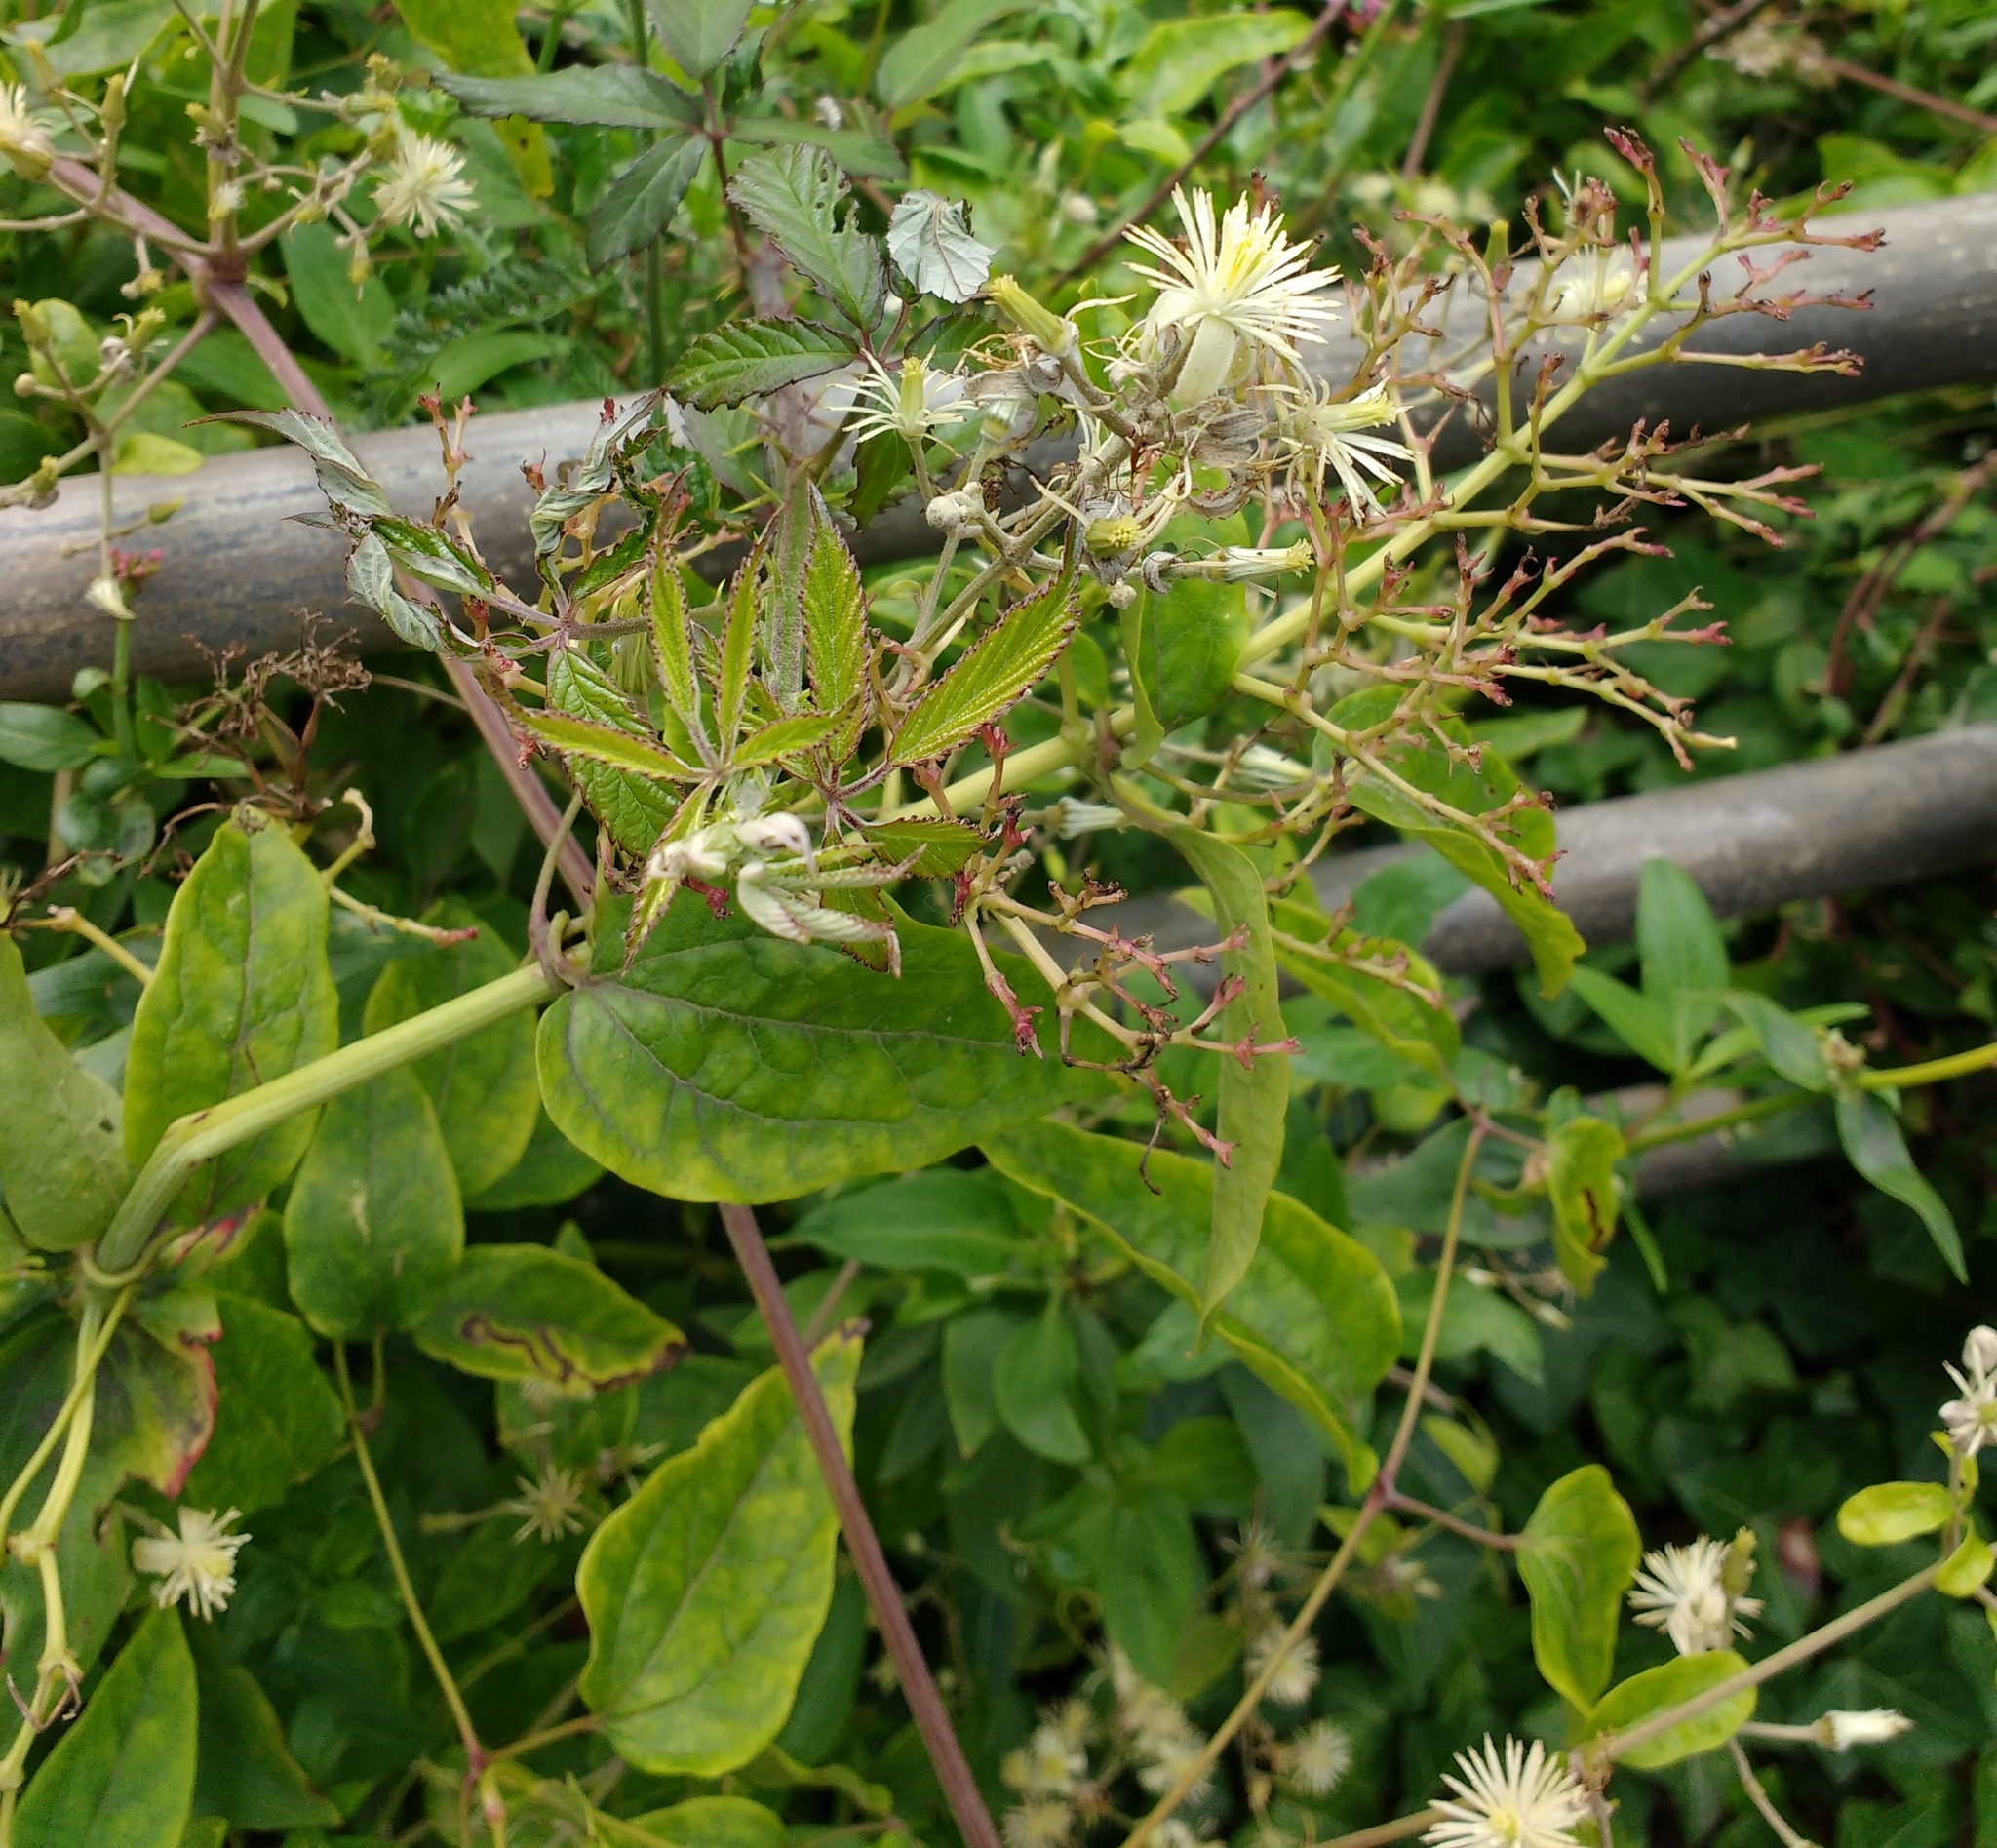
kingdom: Plantae
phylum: Tracheophyta
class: Magnoliopsida
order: Ranunculales
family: Ranunculaceae
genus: Clematis
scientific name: Clematis vitalba
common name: Evergreen clematis
